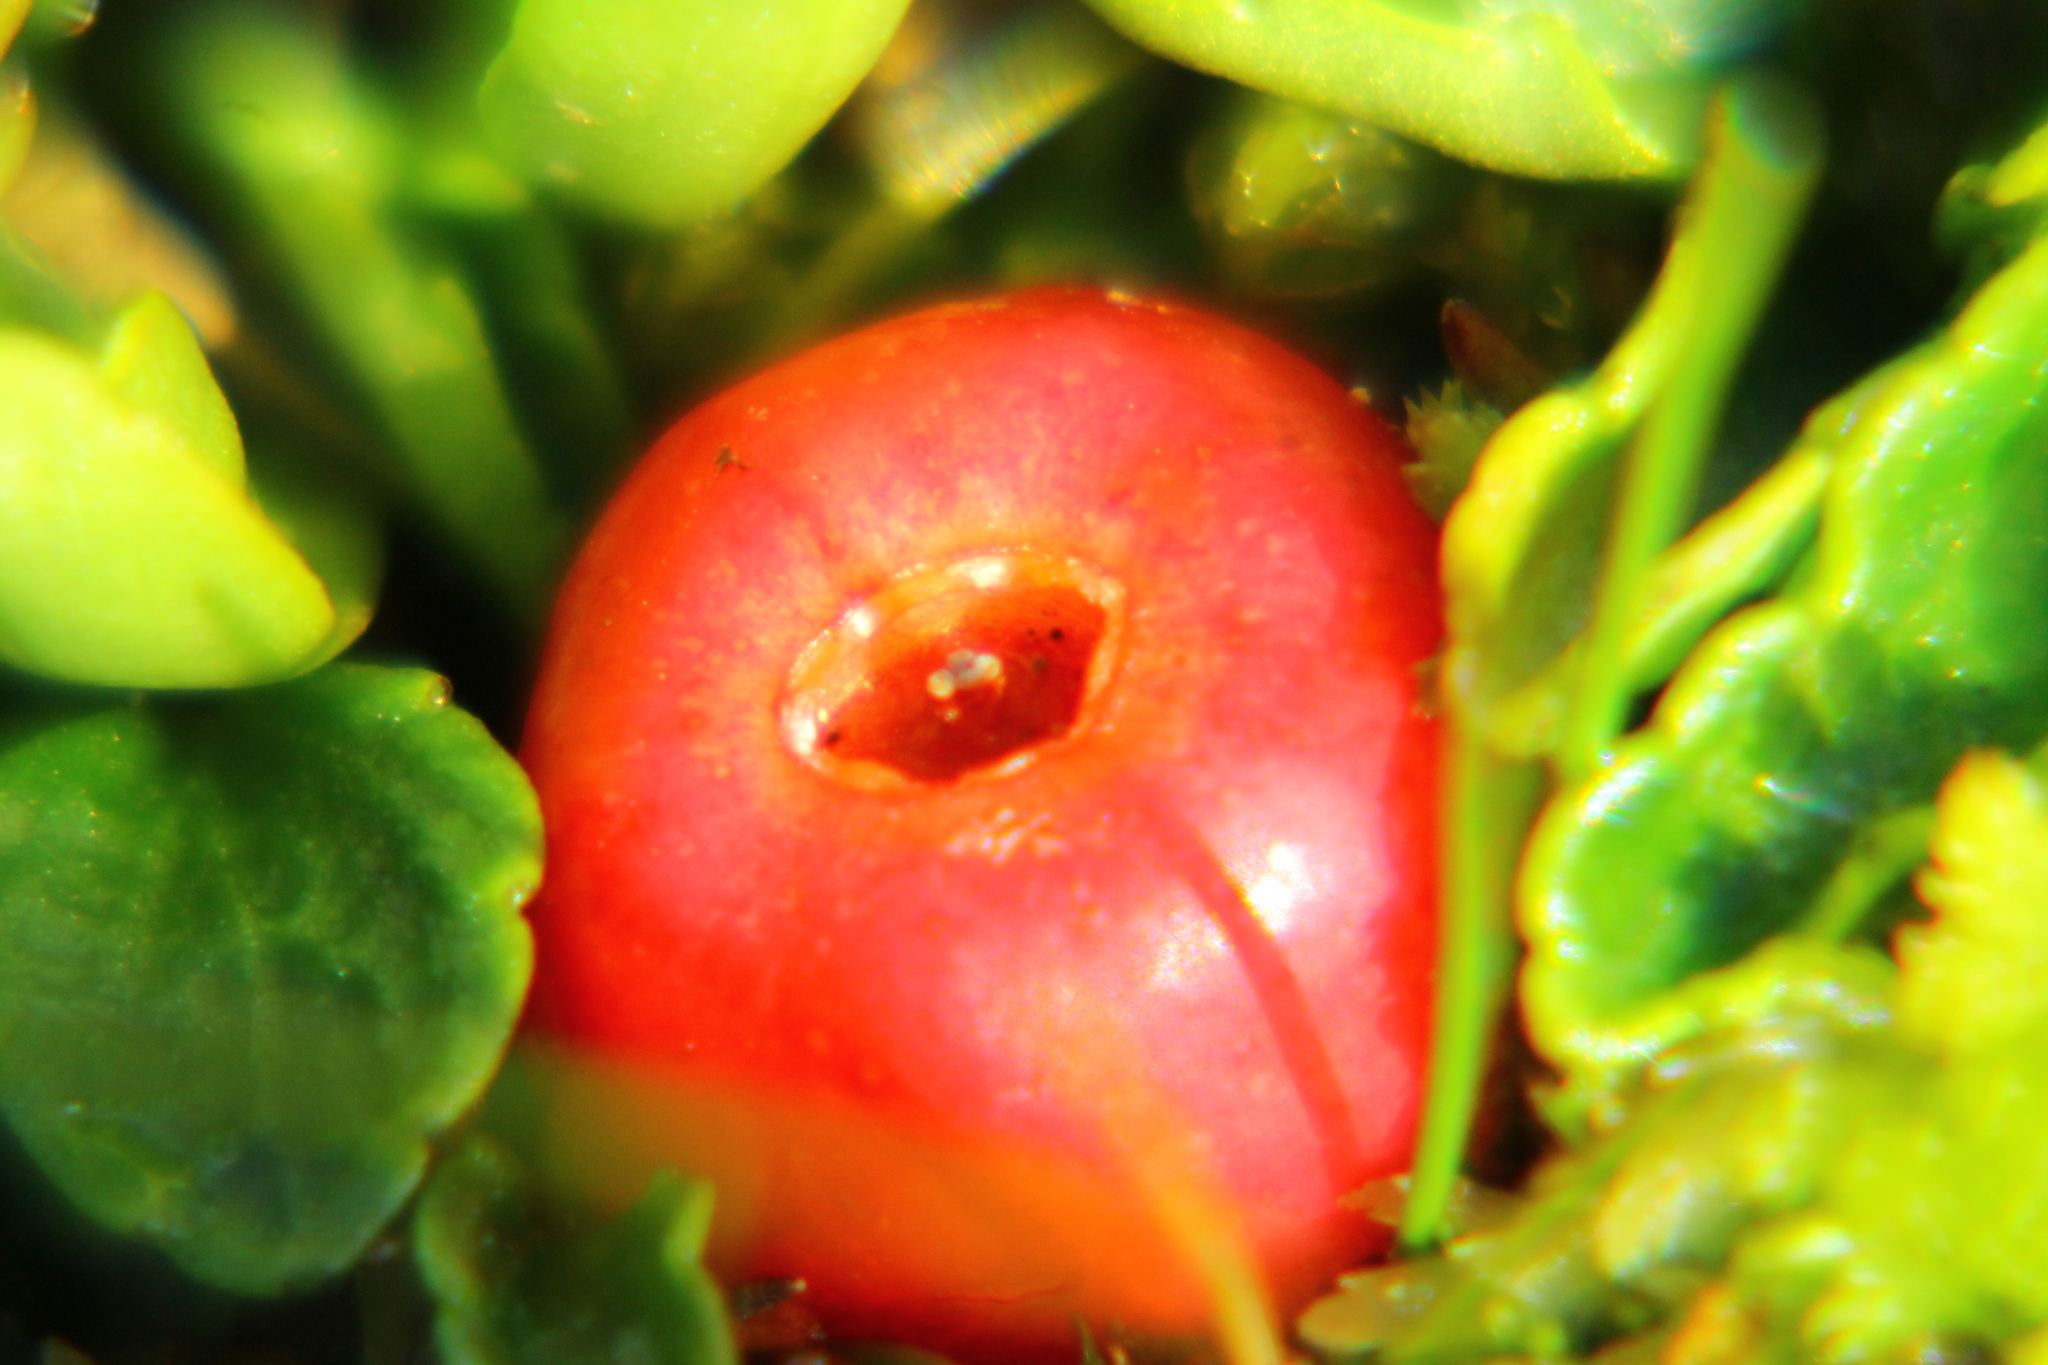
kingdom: Plantae
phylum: Tracheophyta
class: Magnoliopsida
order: Santalales
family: Nanodeaceae
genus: Nanodea
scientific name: Nanodea muscosa
